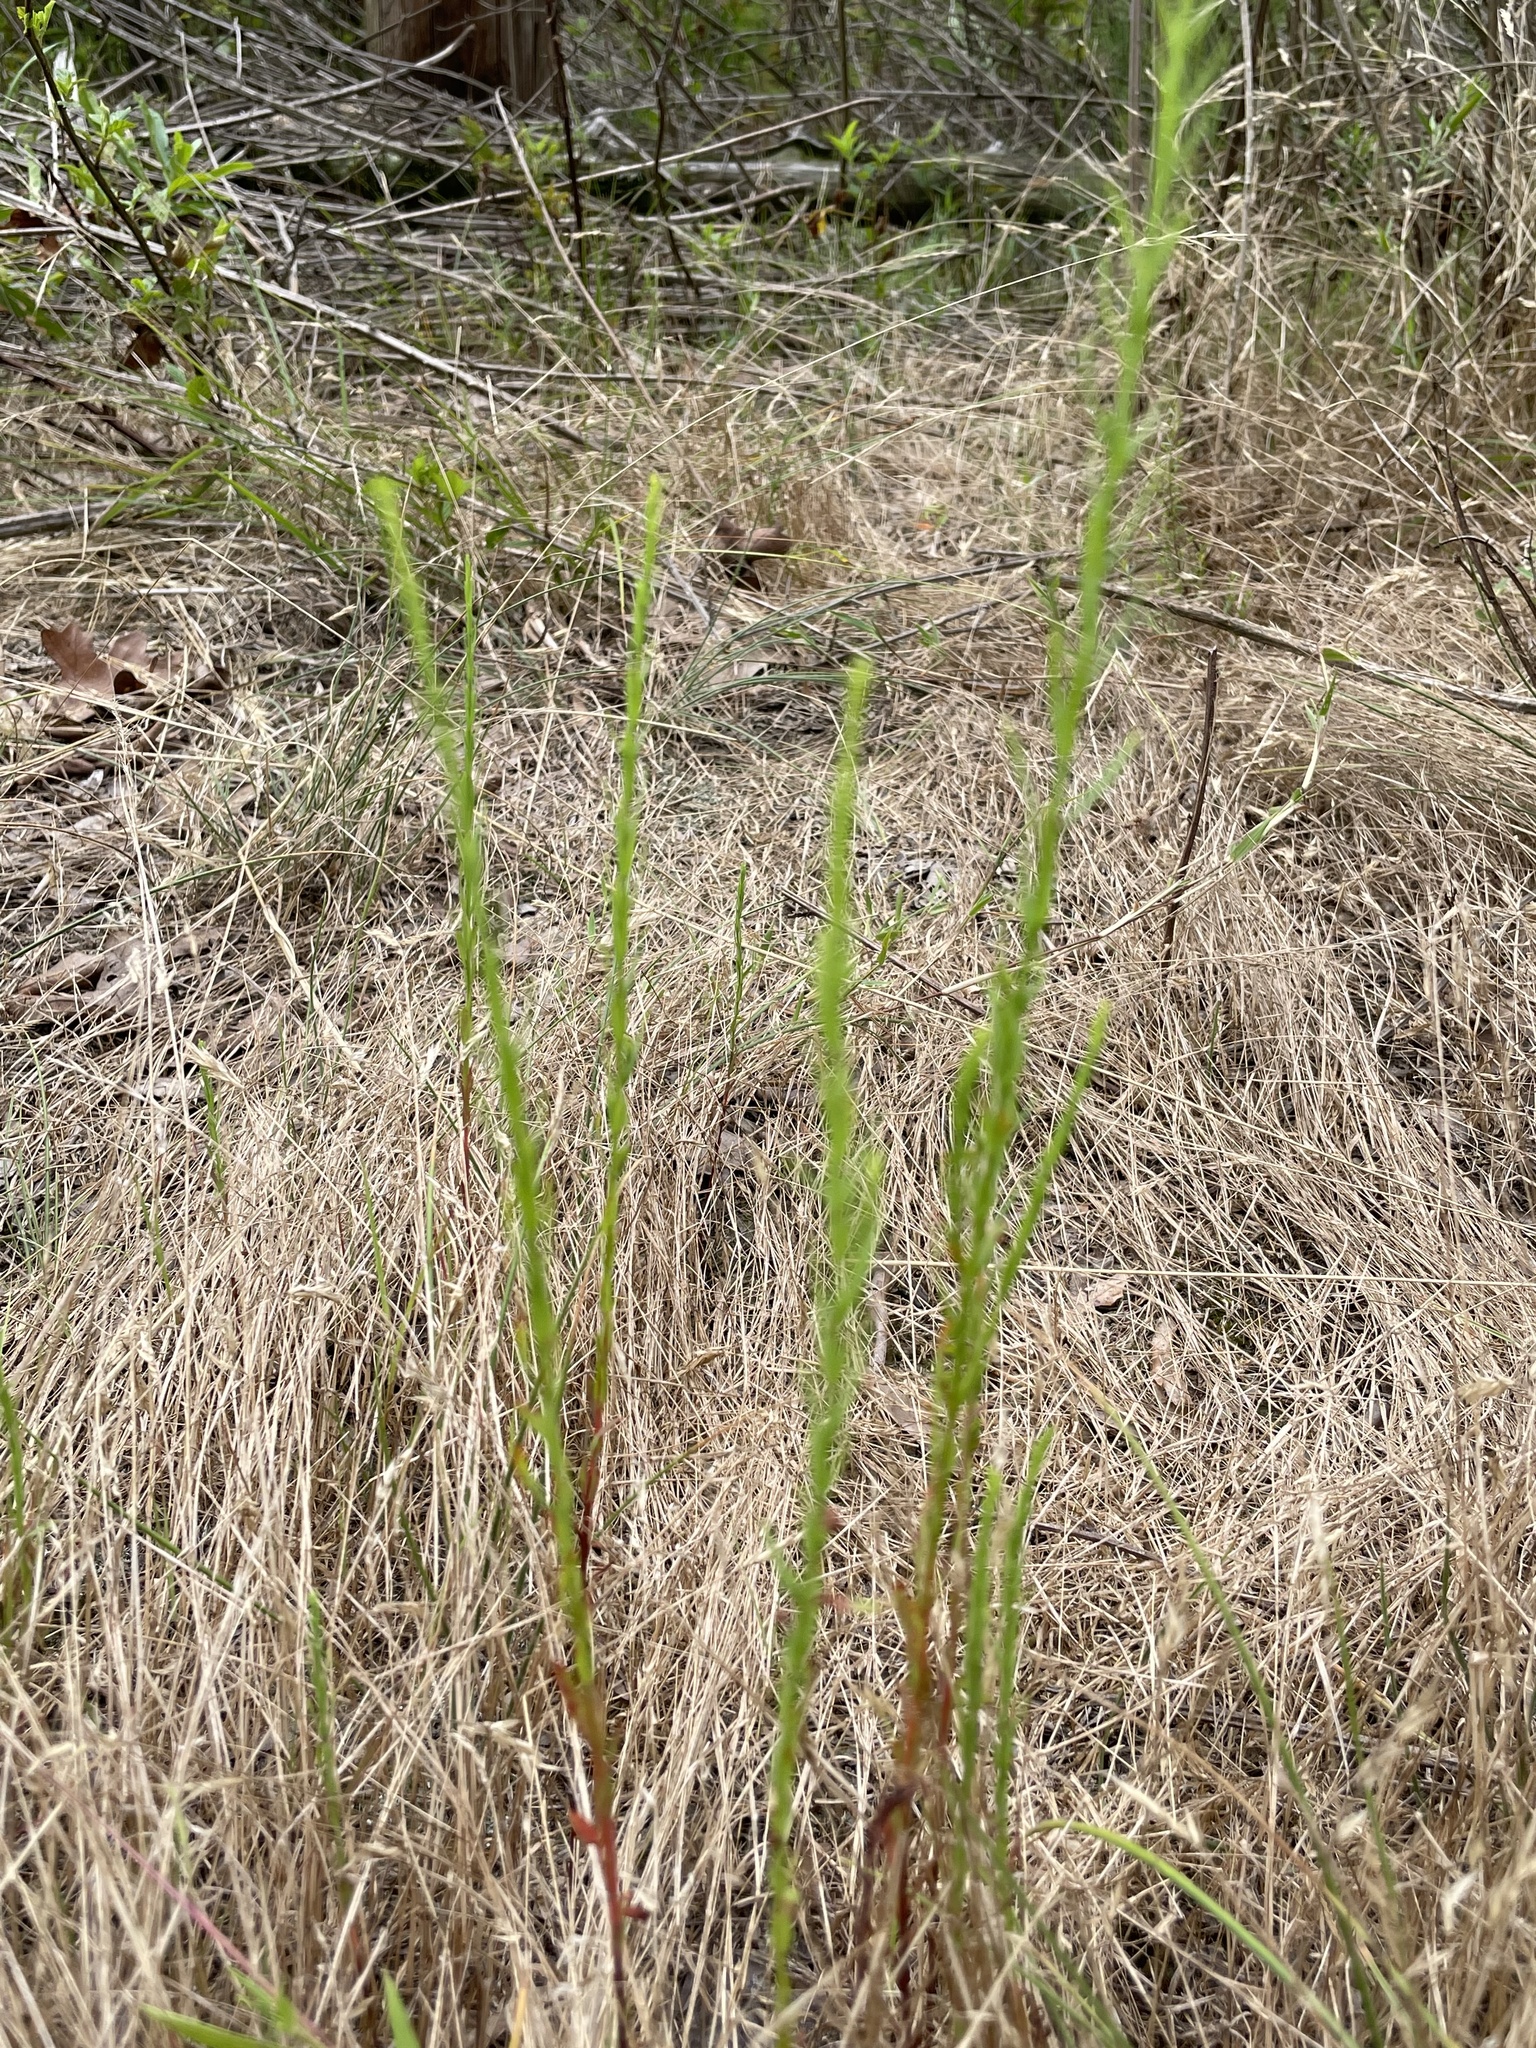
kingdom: Plantae
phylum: Tracheophyta
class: Magnoliopsida
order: Malpighiales
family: Hypericaceae
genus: Hypericum
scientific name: Hypericum drummondii
